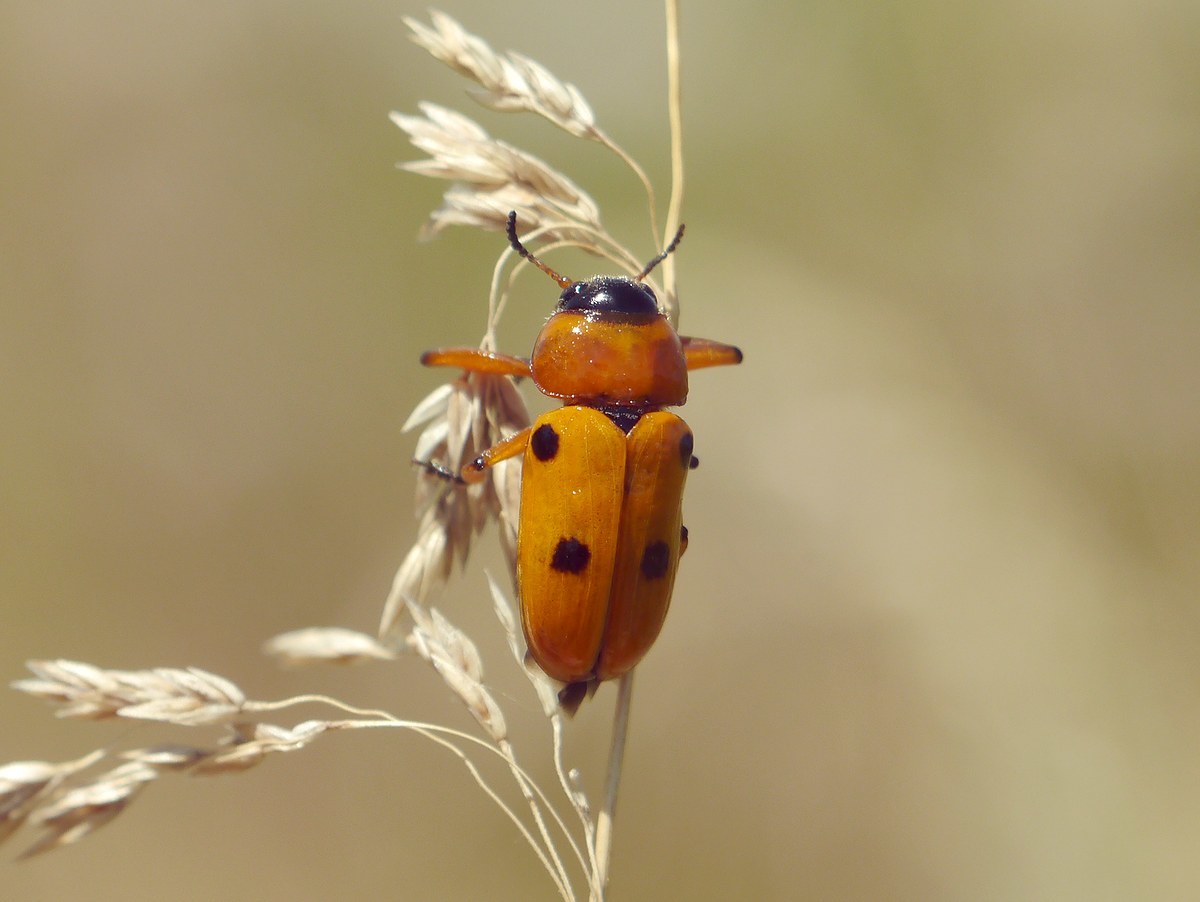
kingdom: Animalia
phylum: Arthropoda
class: Insecta
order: Coleoptera
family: Chrysomelidae
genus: Tituboea
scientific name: Tituboea macropus
